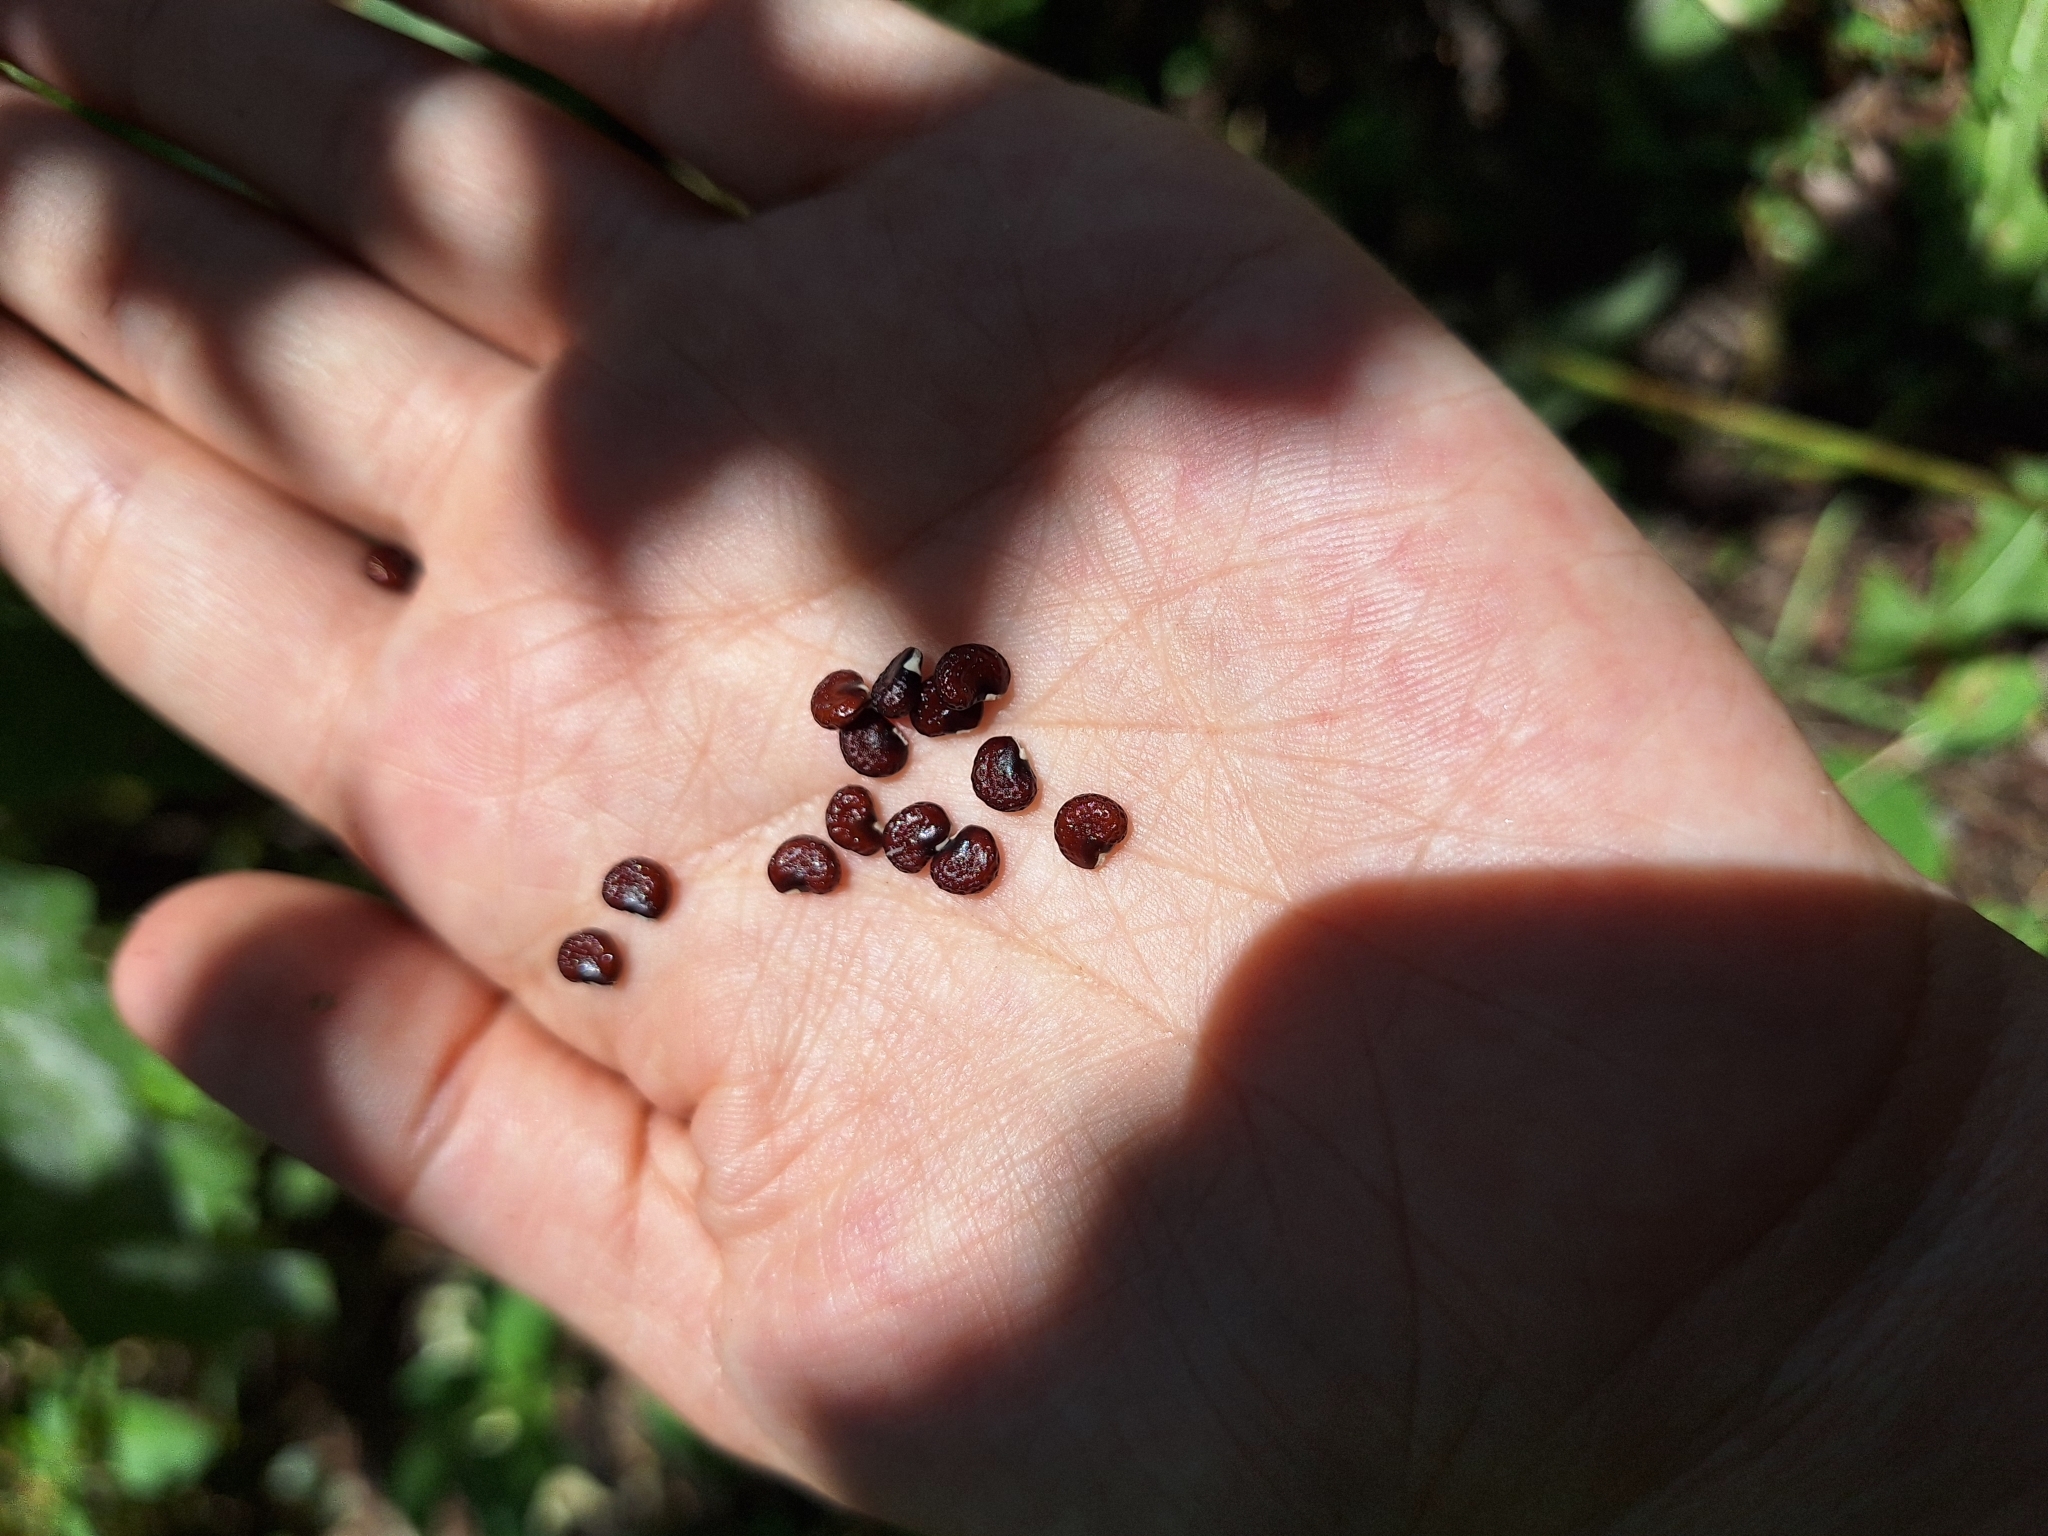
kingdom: Plantae
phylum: Tracheophyta
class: Magnoliopsida
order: Solanales
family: Solanaceae
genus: Datura
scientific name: Datura ferox
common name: Angel's-trumpets
